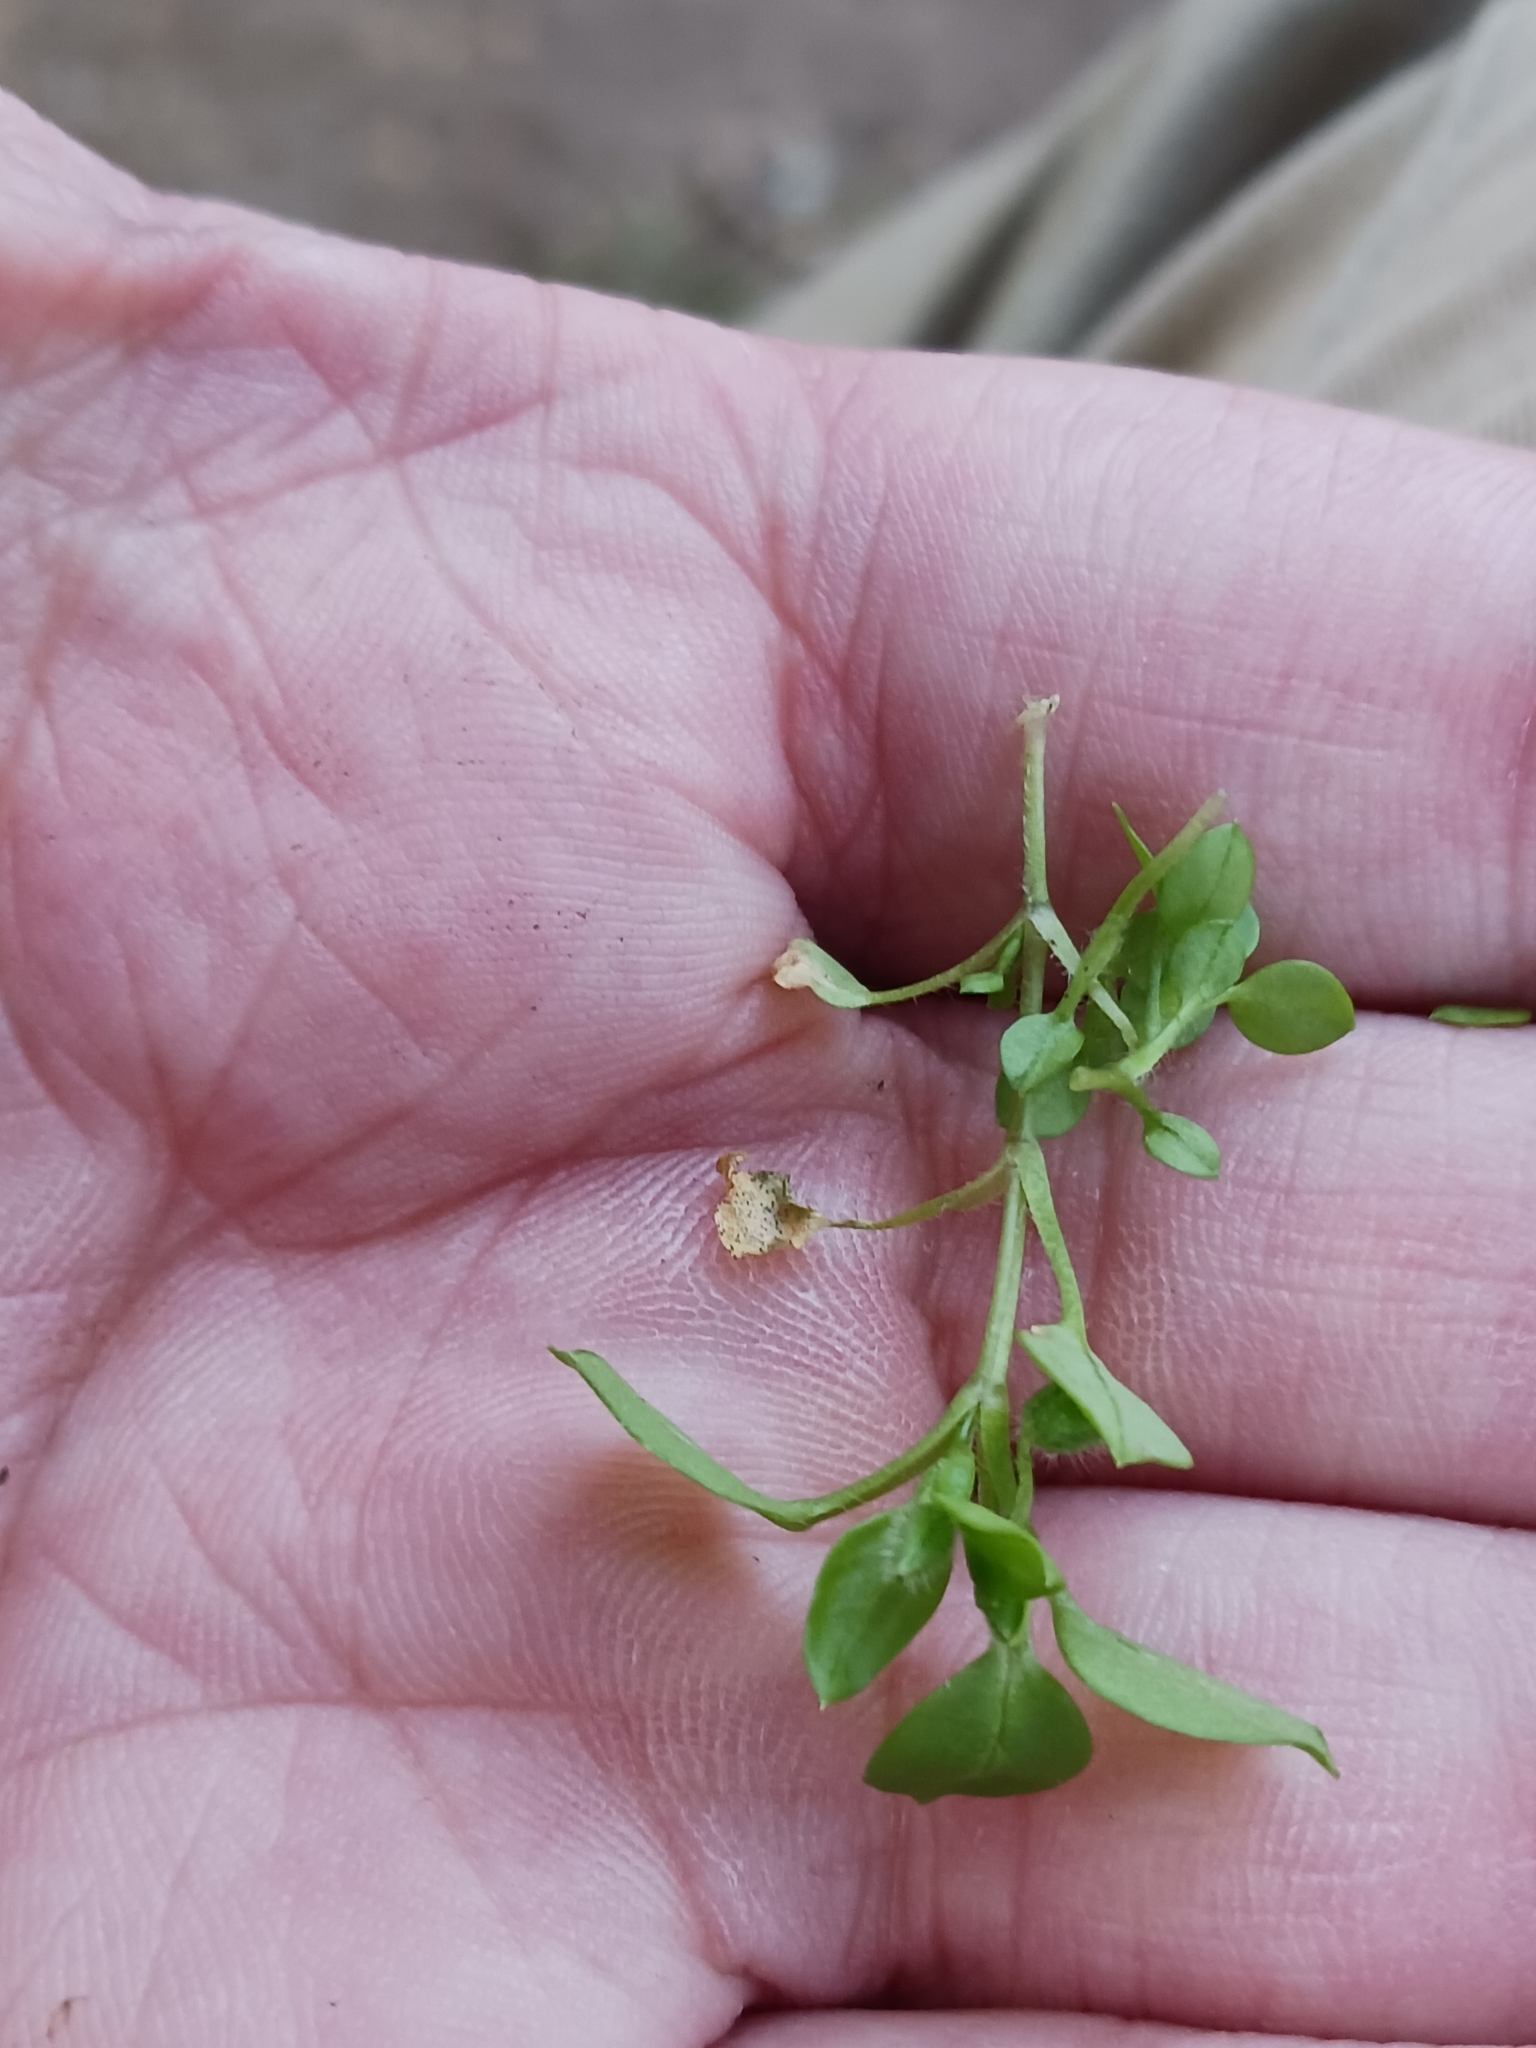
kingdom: Fungi
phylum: Ascomycota
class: Dothideomycetes
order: Mycosphaerellales
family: Mycosphaerellaceae
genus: Septoria
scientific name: Septoria stellariae
